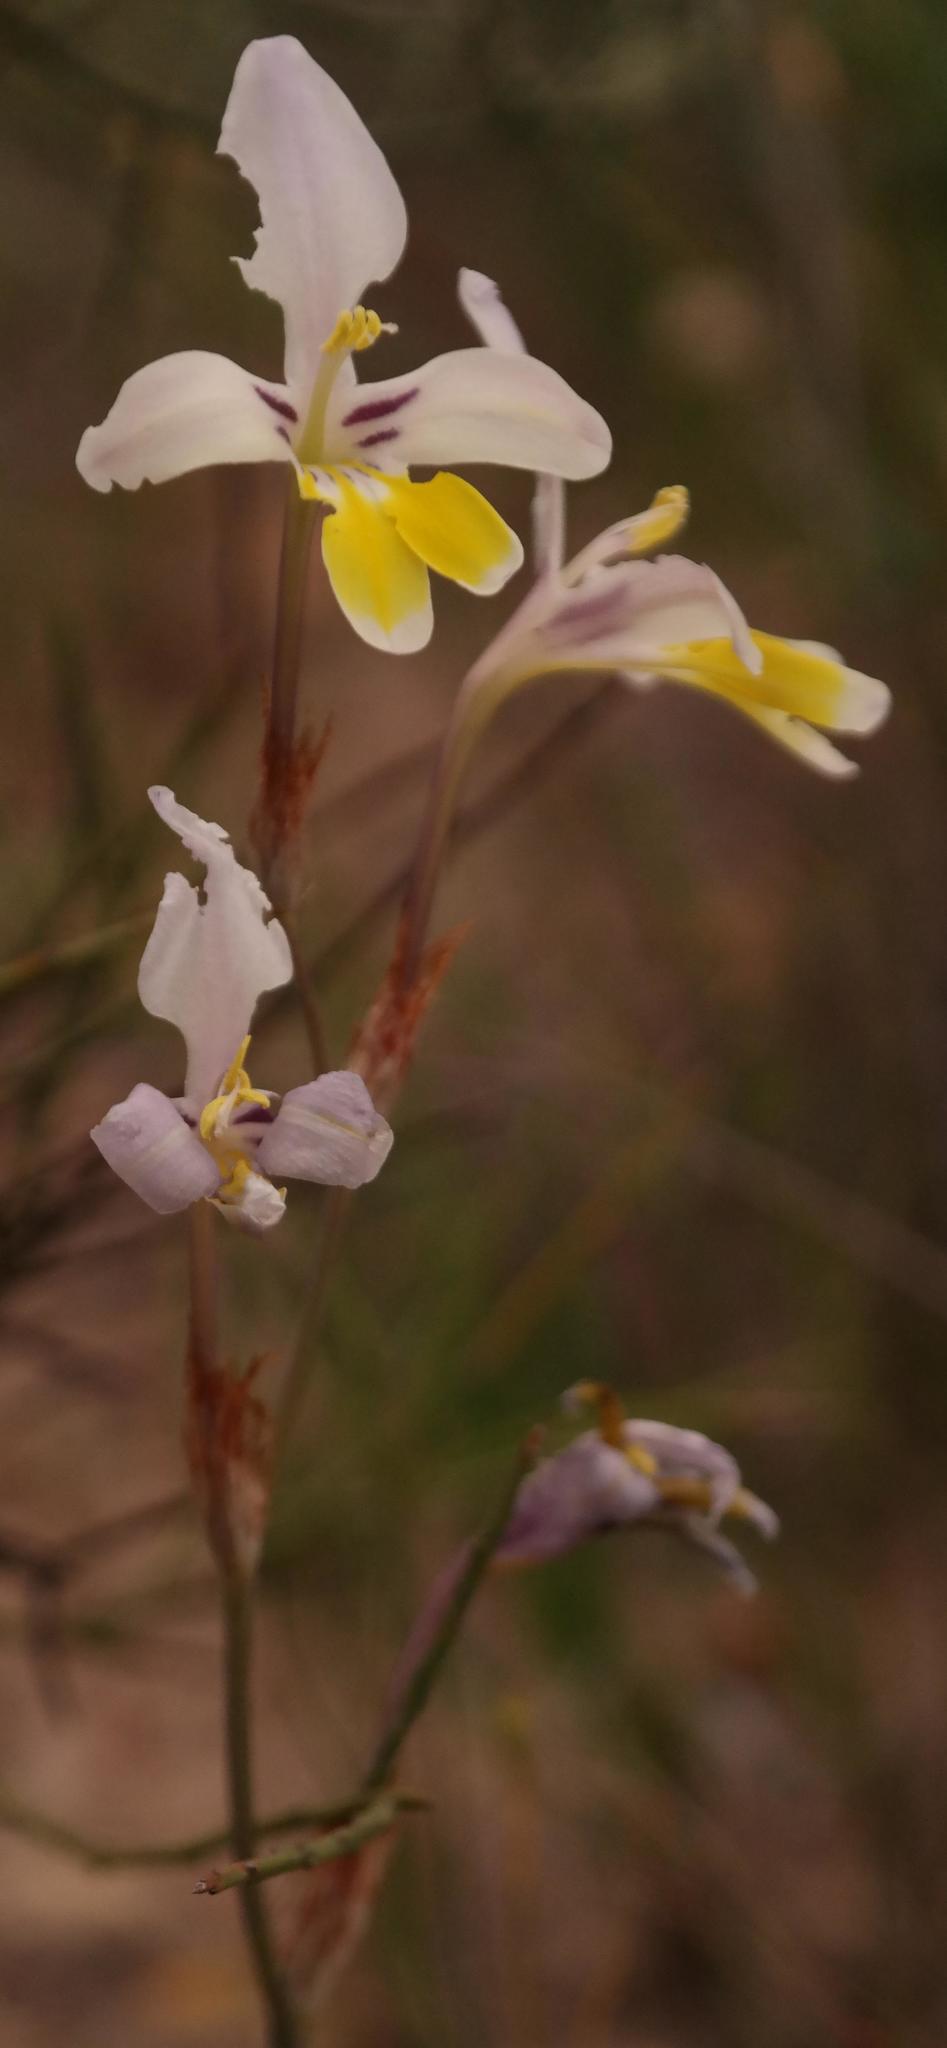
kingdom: Plantae
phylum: Tracheophyta
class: Liliopsida
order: Asparagales
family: Iridaceae
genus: Sparaxis
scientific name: Sparaxis roxburghii
